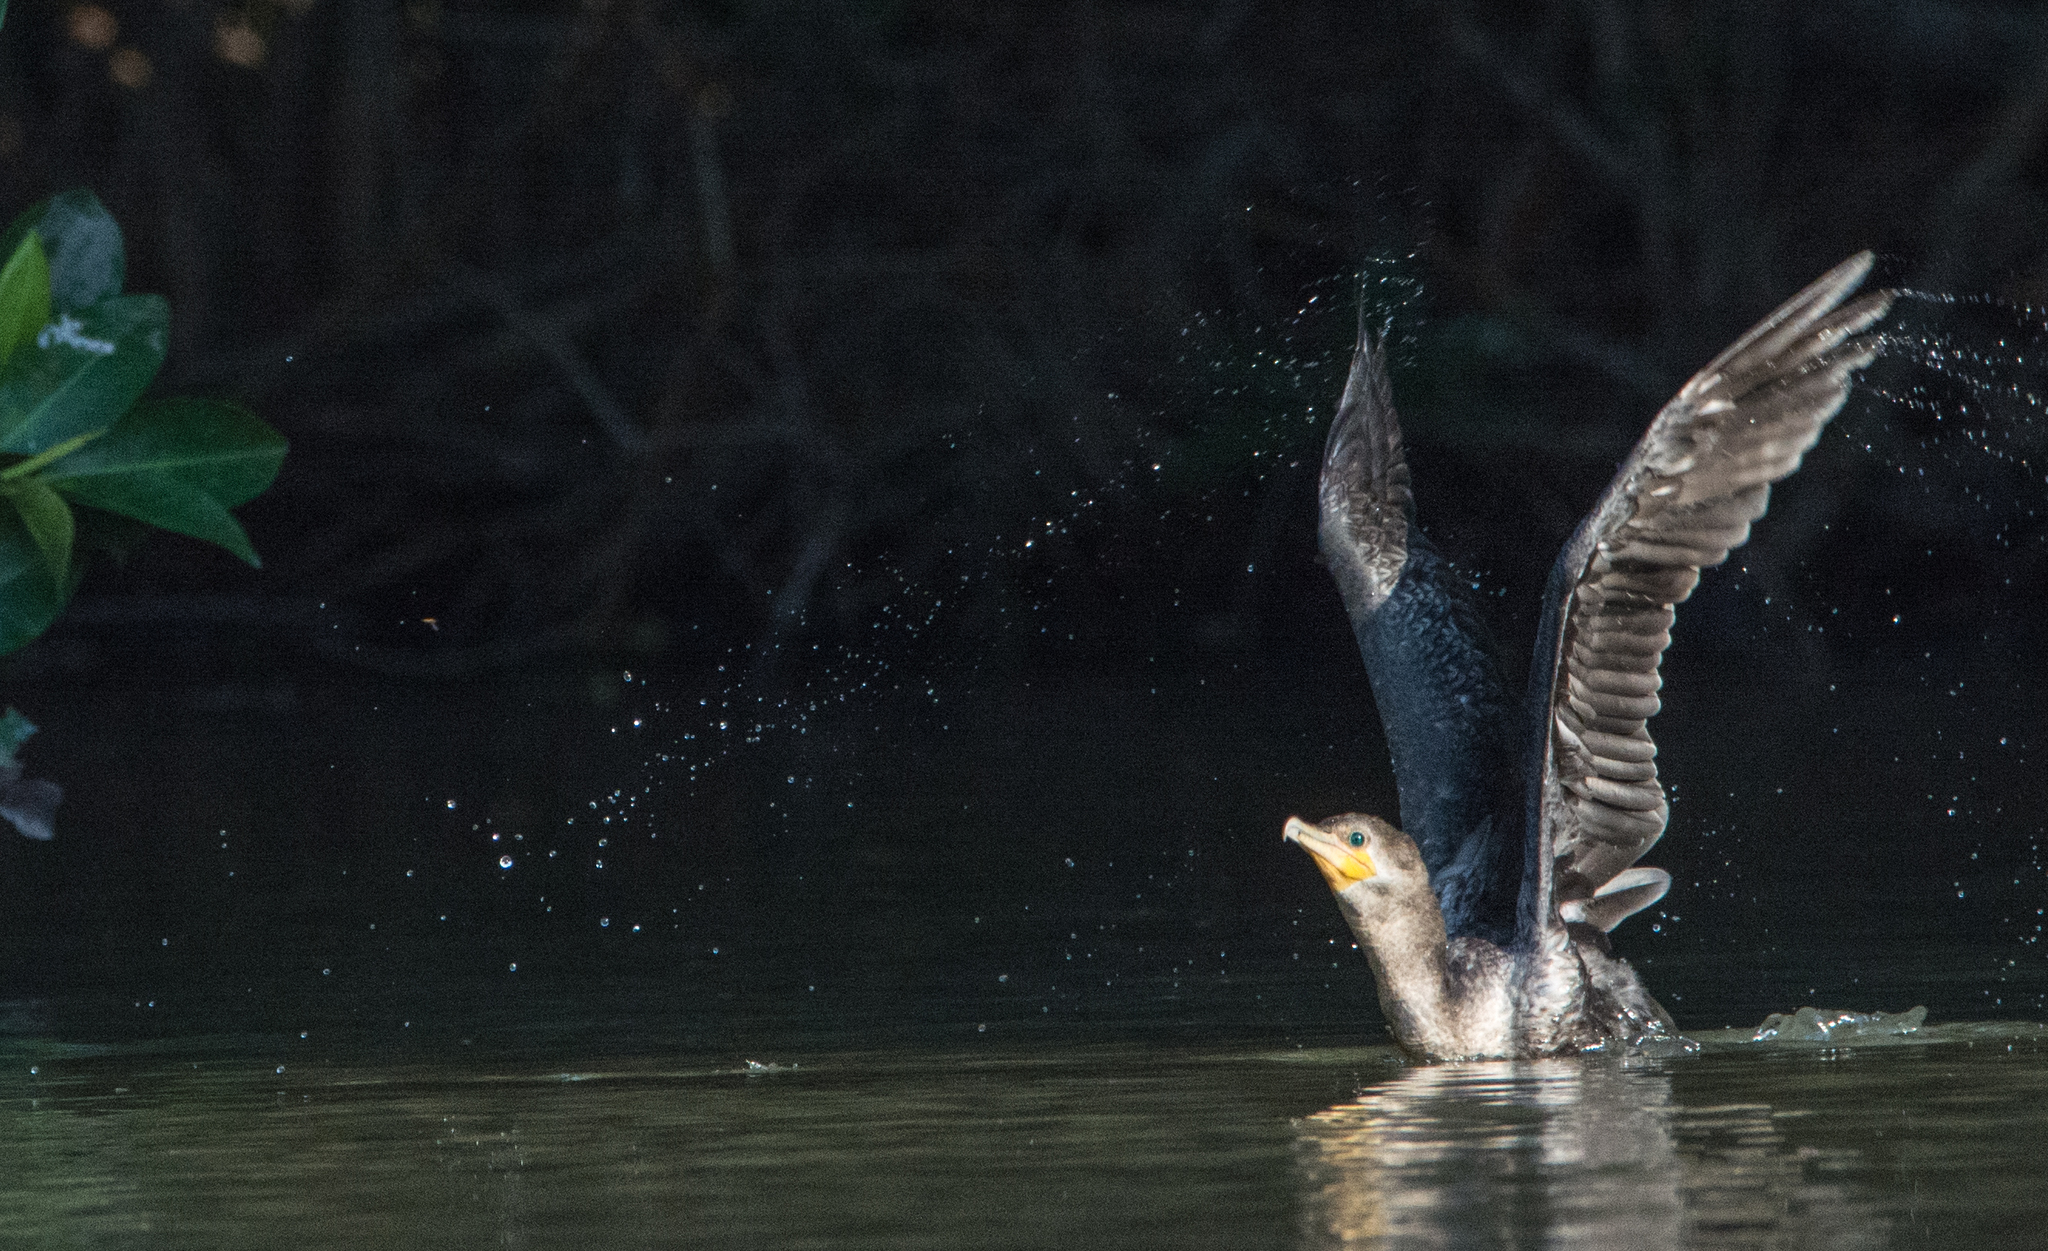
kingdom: Animalia
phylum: Chordata
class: Aves
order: Suliformes
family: Phalacrocoracidae
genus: Phalacrocorax
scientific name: Phalacrocorax brasilianus
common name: Neotropic cormorant
